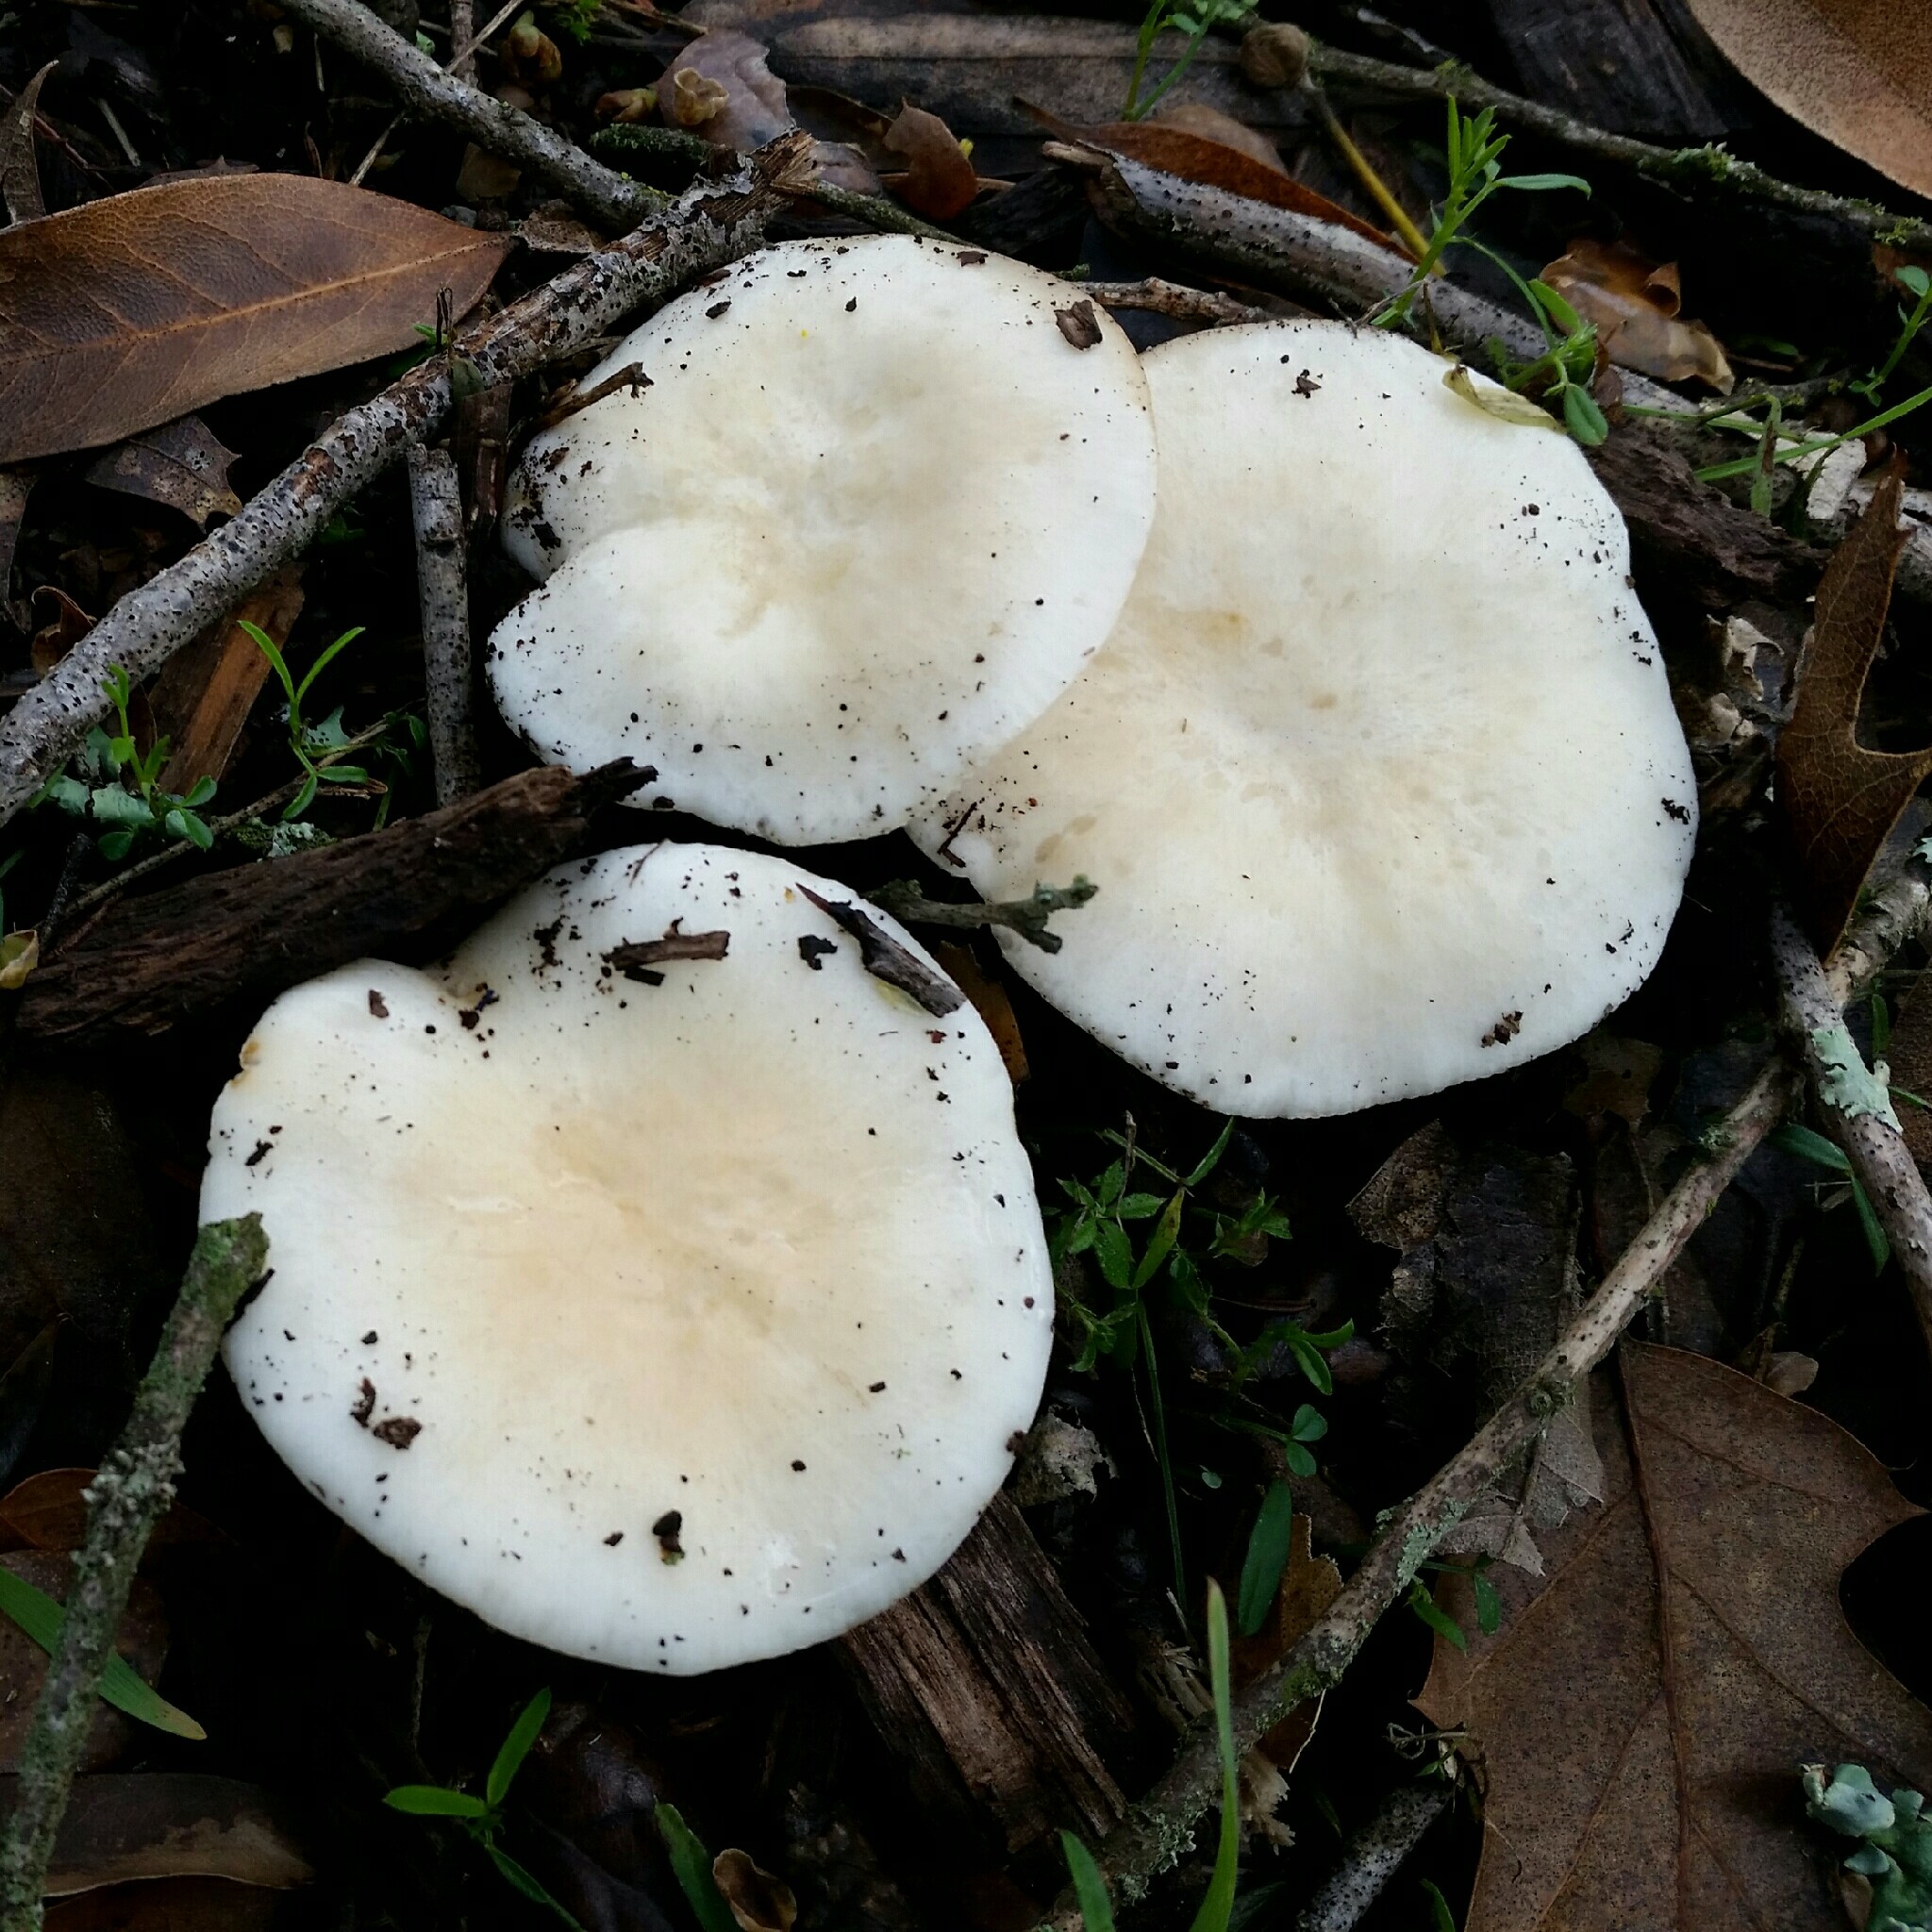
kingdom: Fungi
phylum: Basidiomycota
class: Agaricomycetes
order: Agaricales
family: Hygrophoraceae
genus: Hygrophorus
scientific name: Hygrophorus eburneus
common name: Ivory wax-cap
